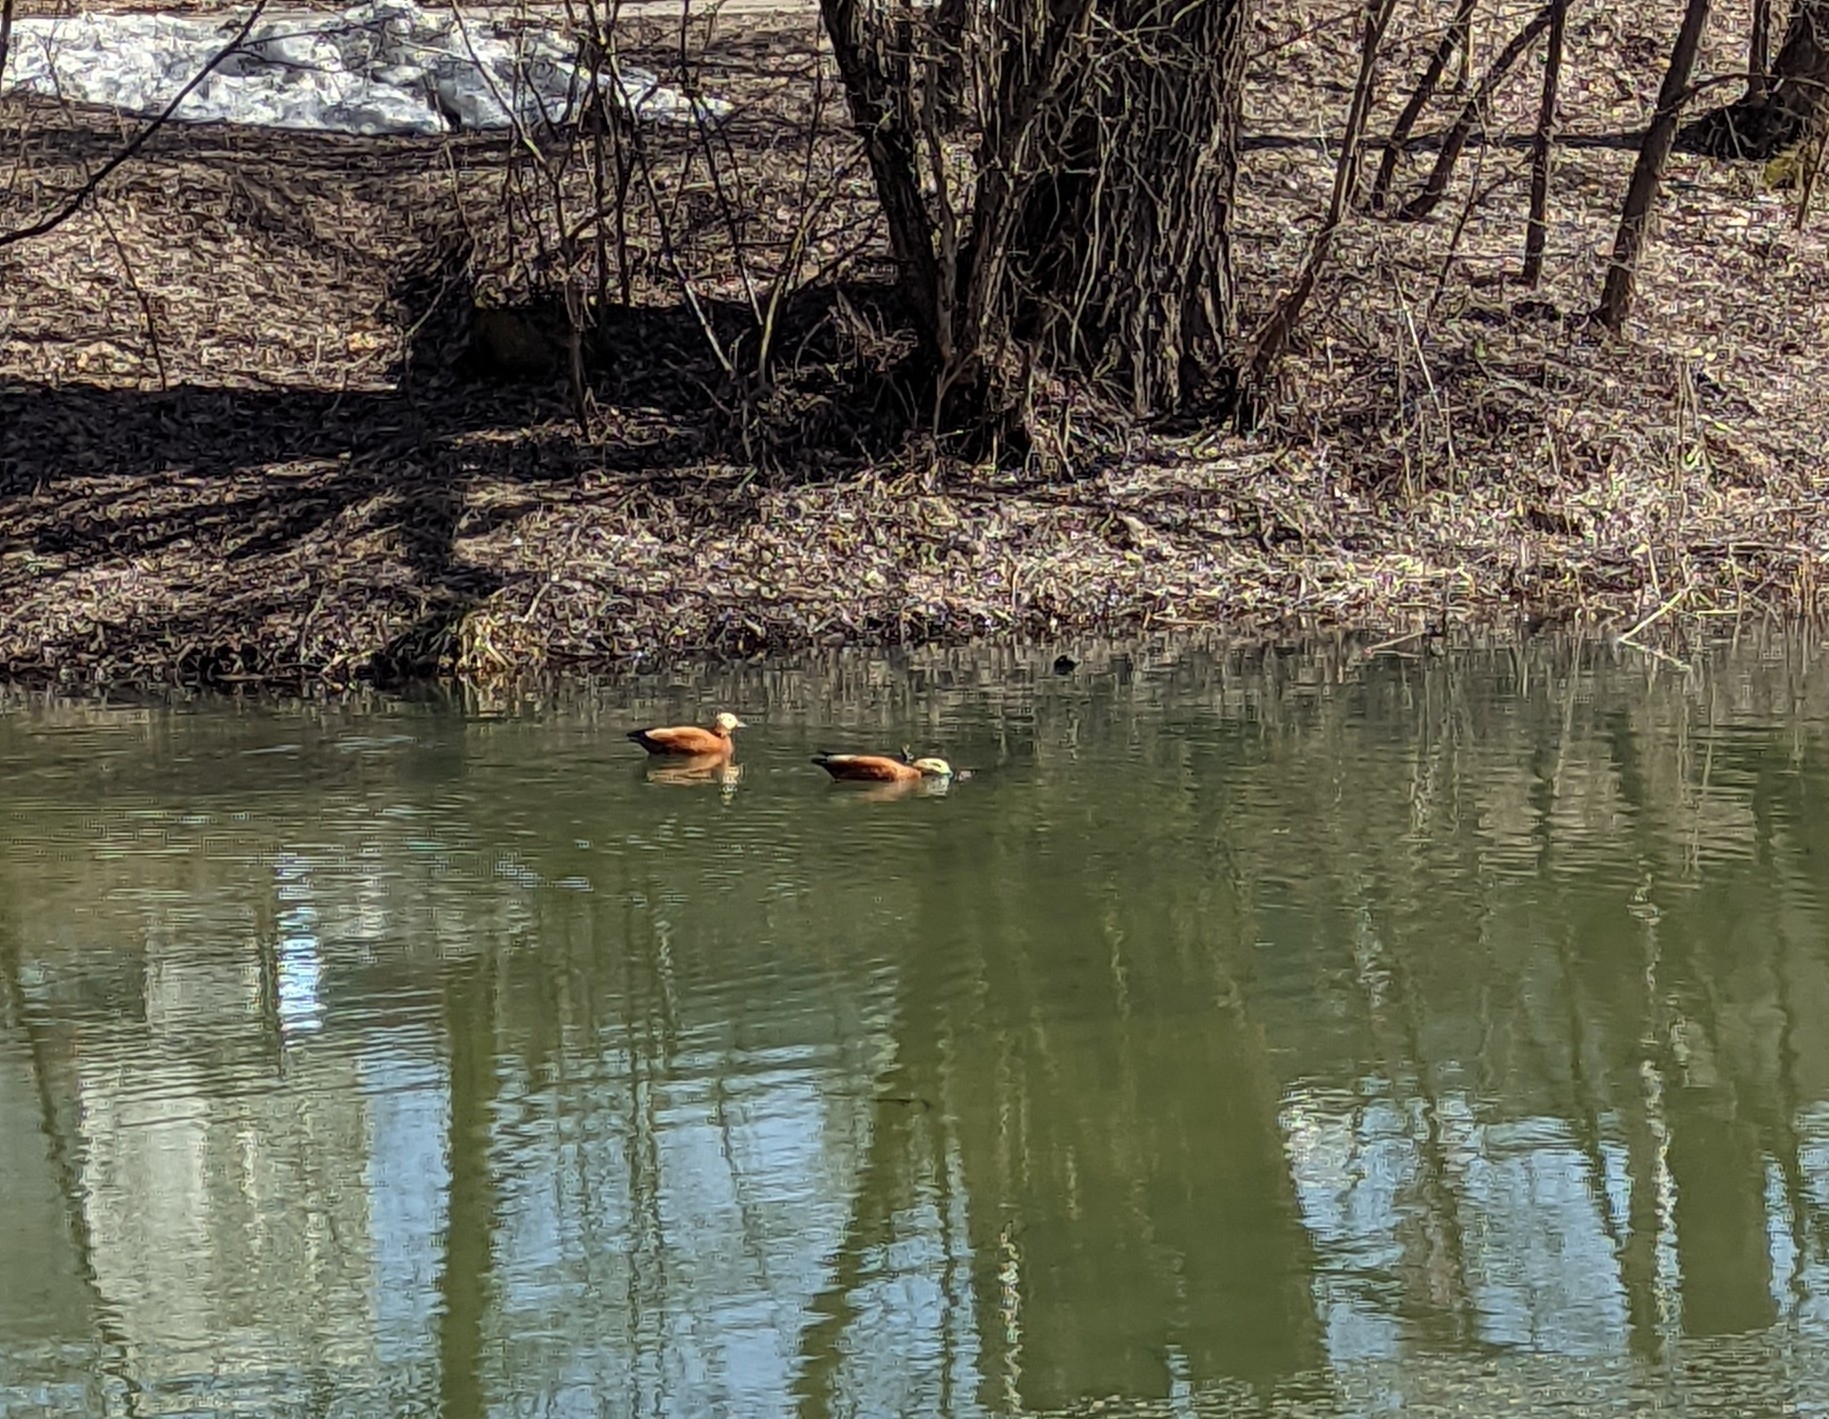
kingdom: Animalia
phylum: Chordata
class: Aves
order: Anseriformes
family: Anatidae
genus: Tadorna
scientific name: Tadorna ferruginea
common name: Ruddy shelduck
